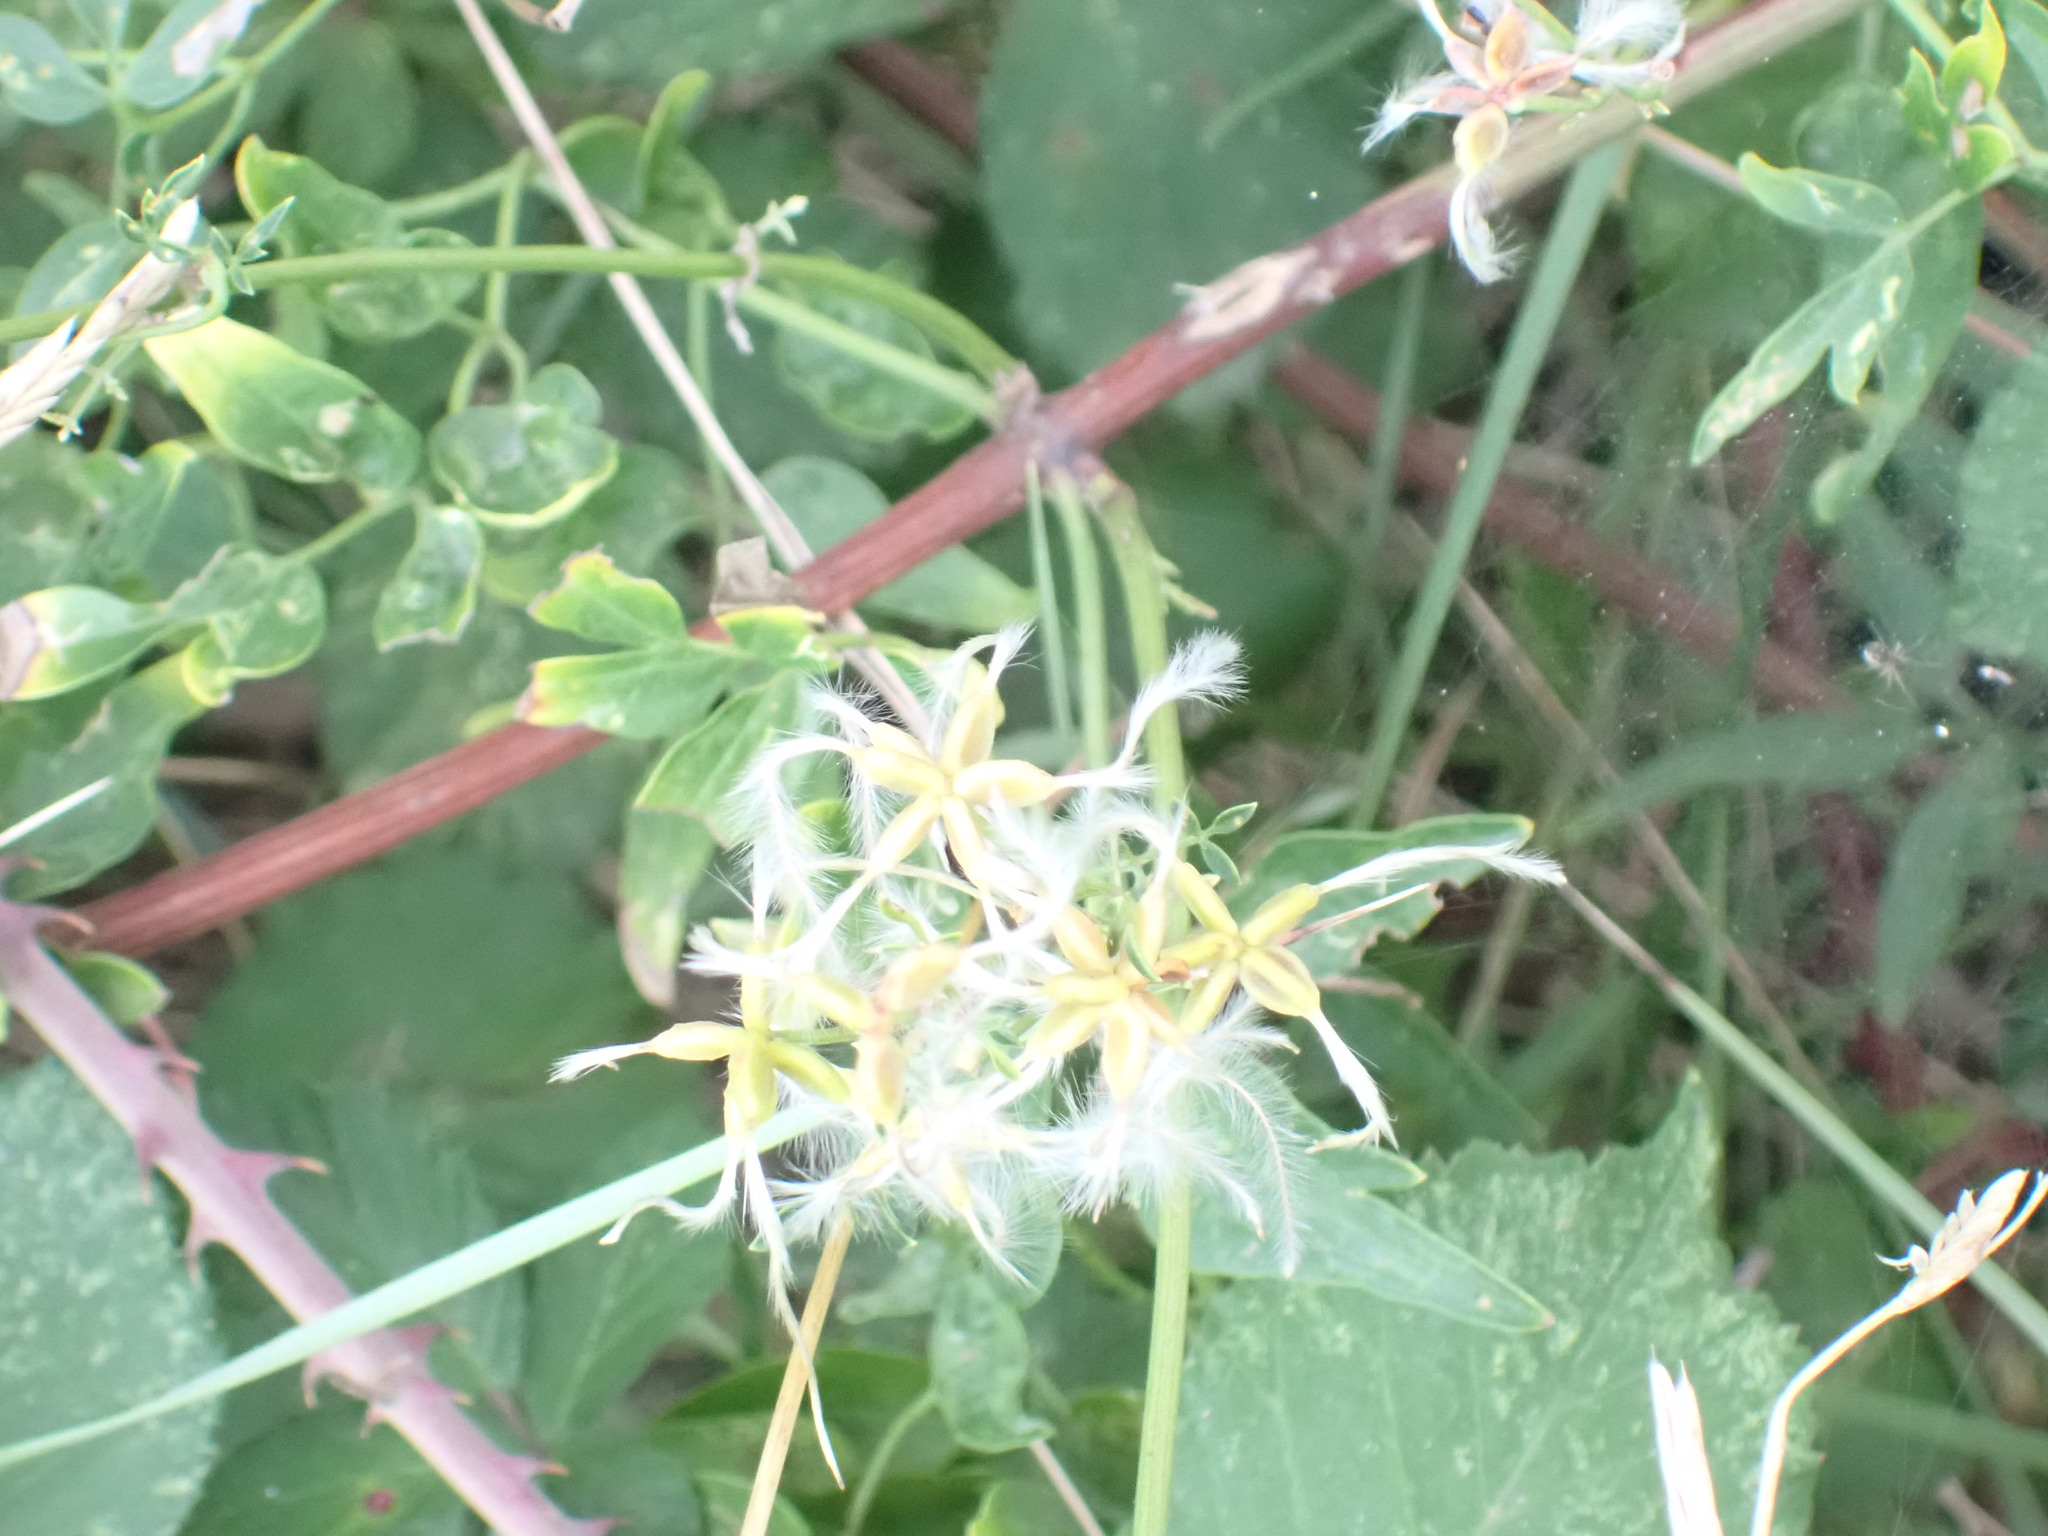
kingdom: Plantae
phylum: Tracheophyta
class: Magnoliopsida
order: Ranunculales
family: Ranunculaceae
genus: Clematis
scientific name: Clematis flammula
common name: Virgin's-bower
